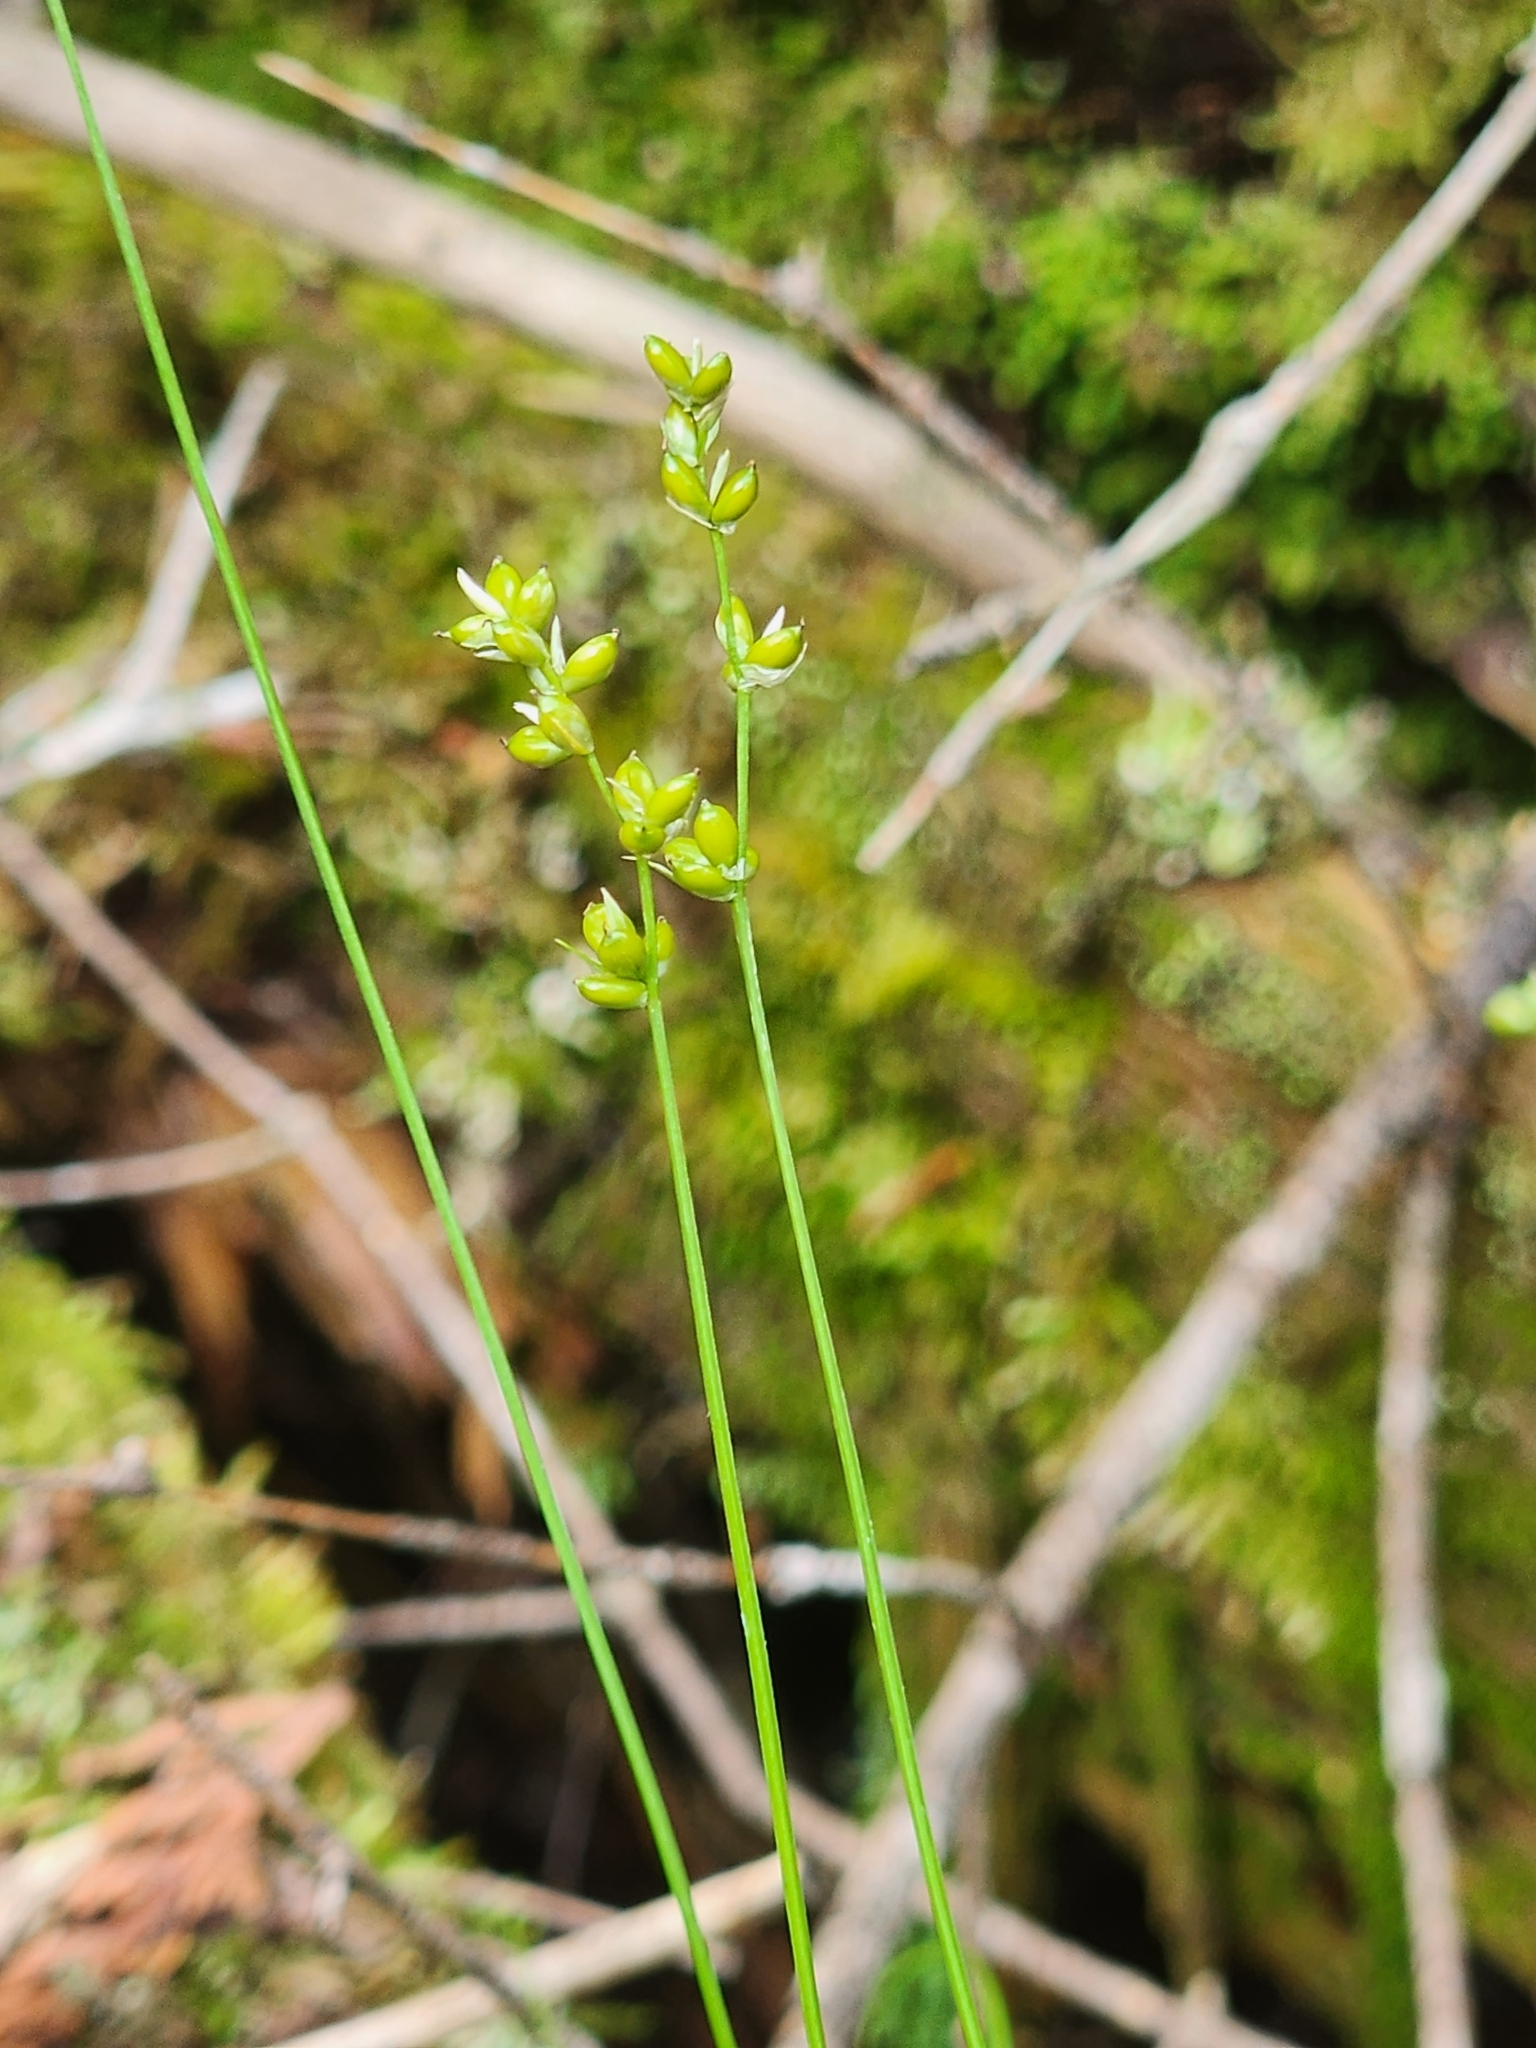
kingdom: Plantae
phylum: Tracheophyta
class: Liliopsida
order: Poales
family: Cyperaceae
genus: Carex
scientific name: Carex disperma
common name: Short-leaved sedge
